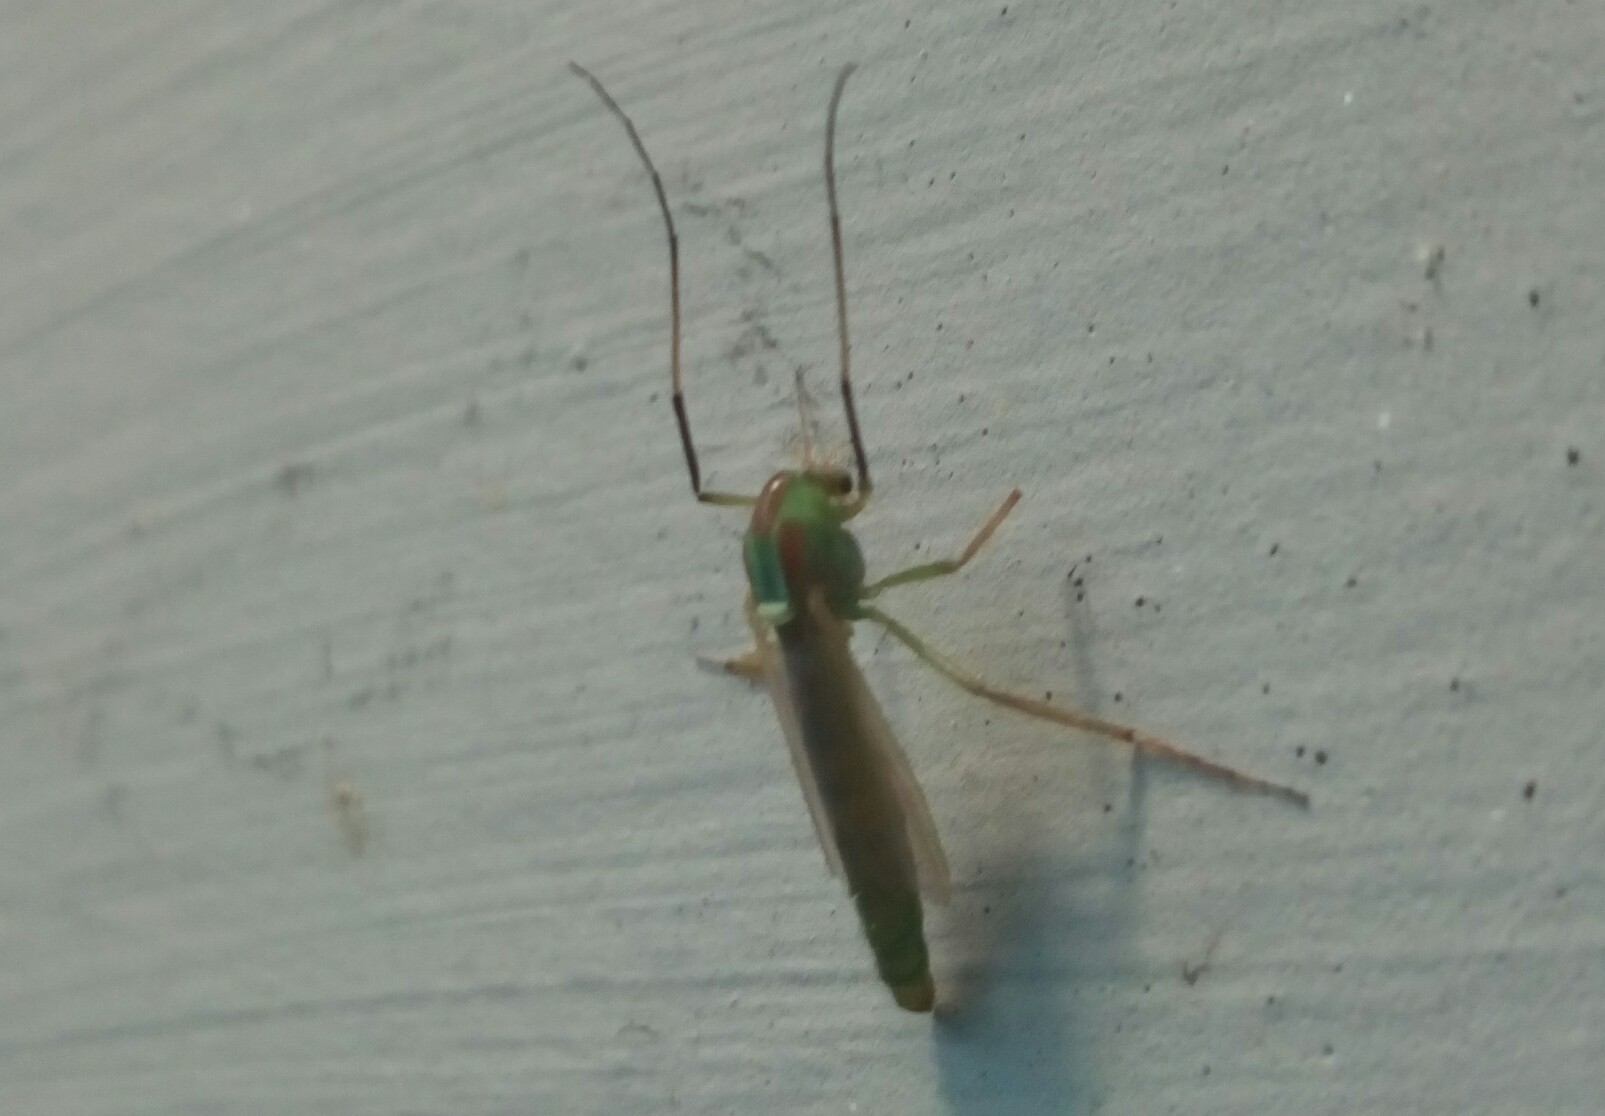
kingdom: Animalia
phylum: Arthropoda
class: Insecta
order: Diptera
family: Chironomidae
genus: Axarus
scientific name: Axarus
